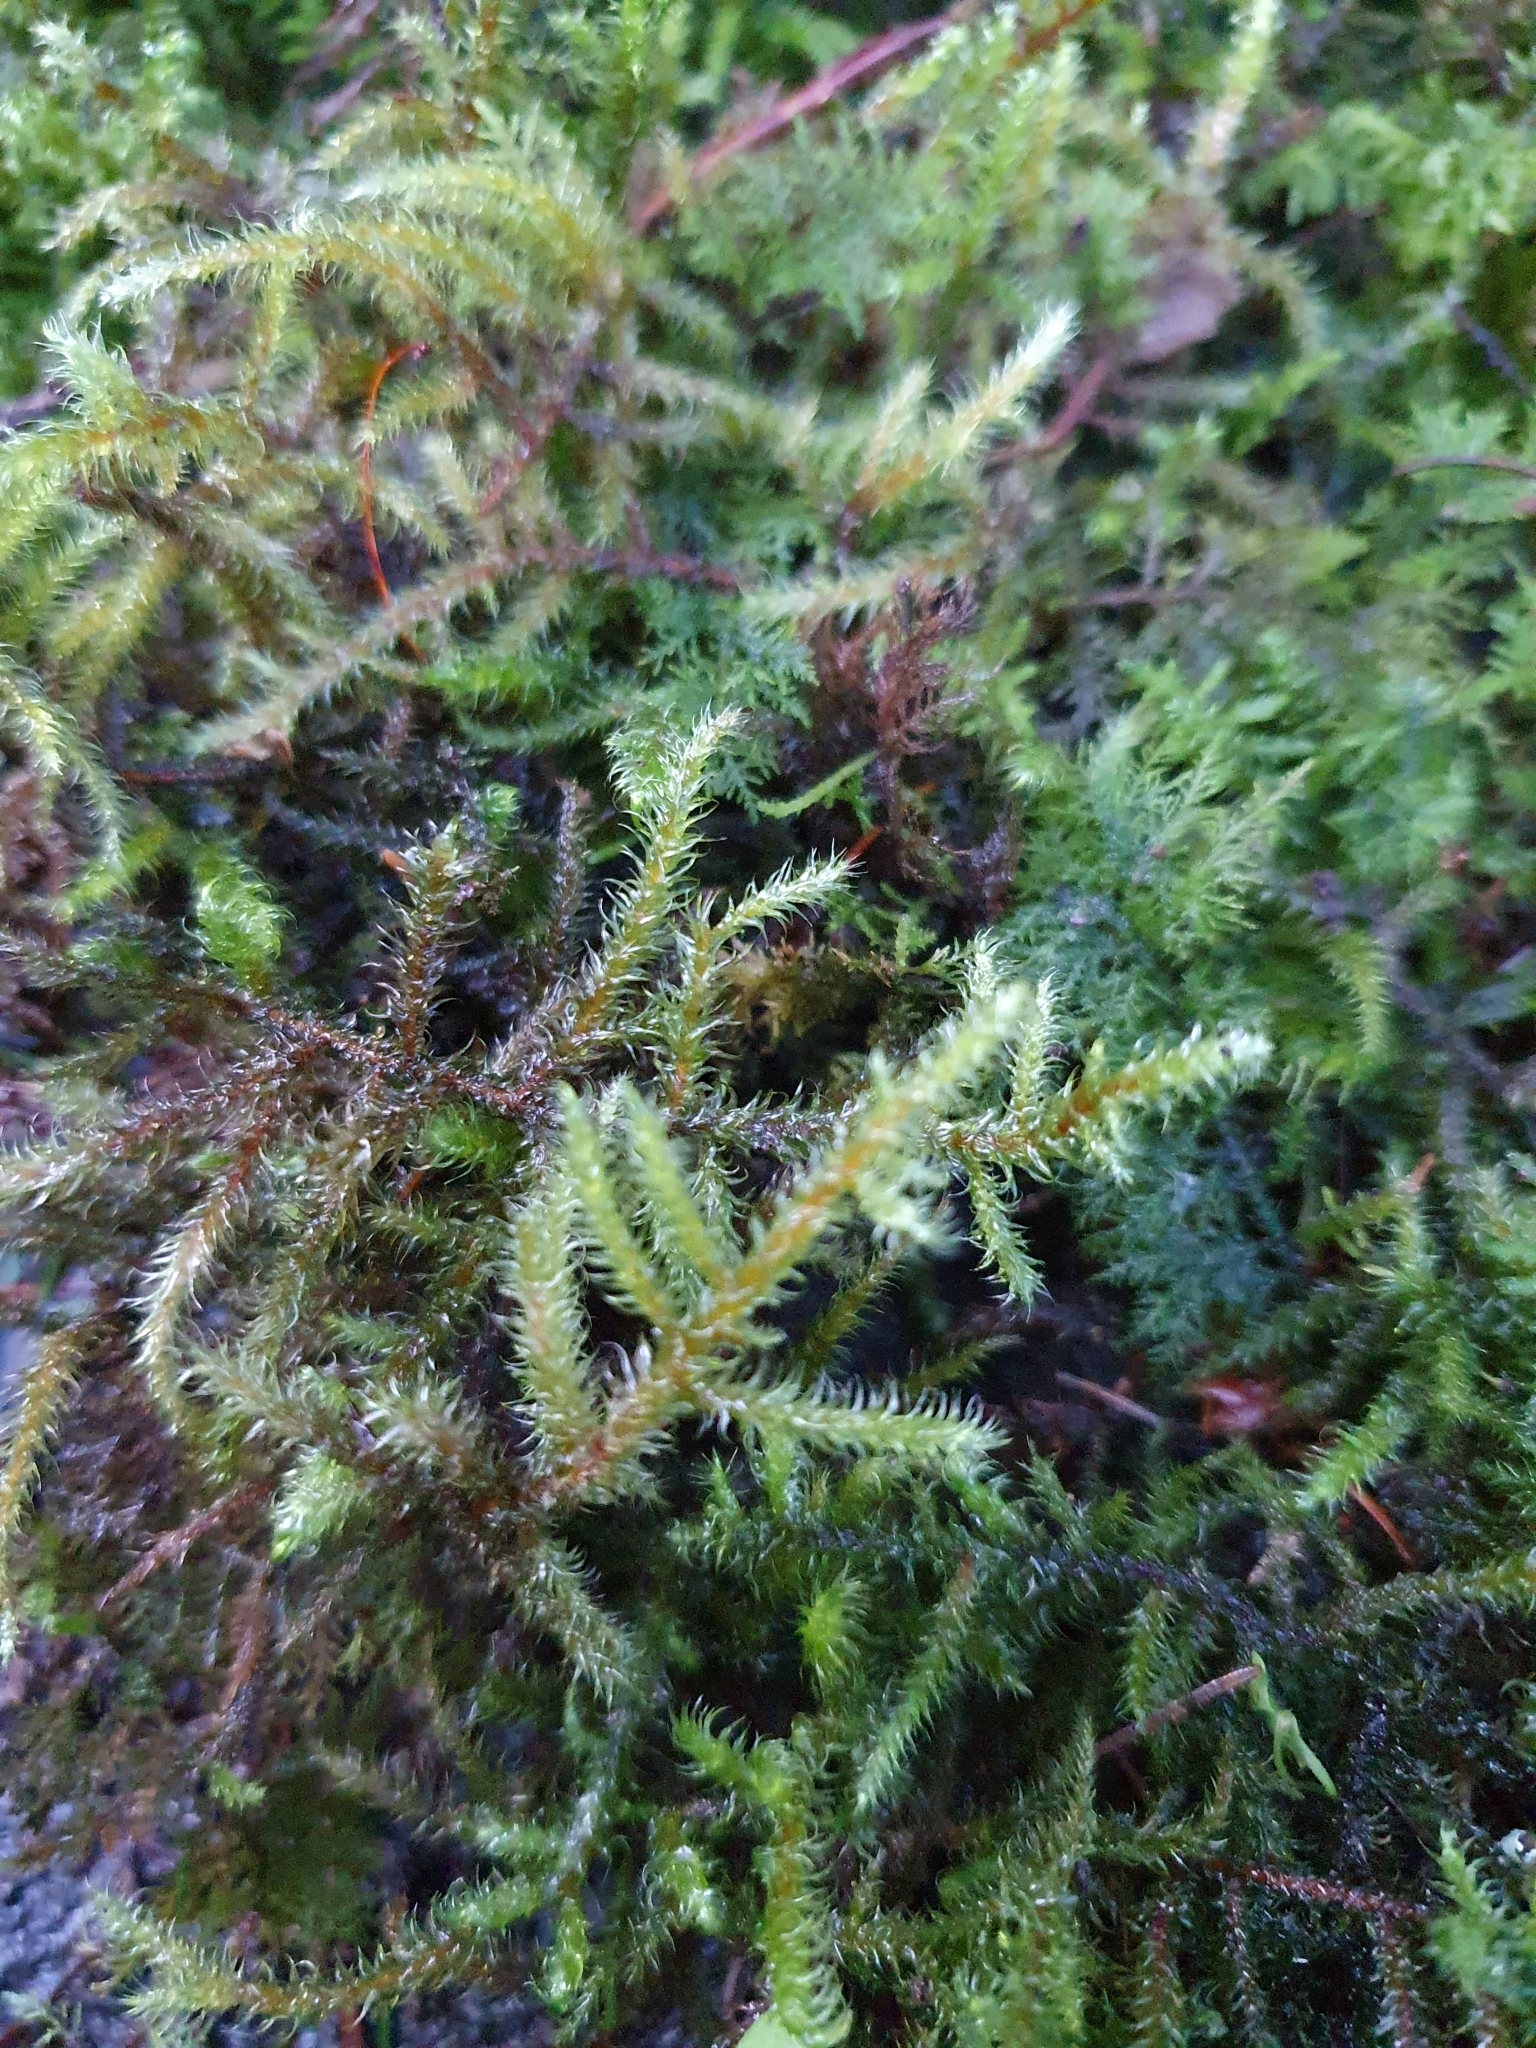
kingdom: Plantae
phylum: Bryophyta
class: Bryopsida
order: Hypnales
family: Hylocomiaceae
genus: Rhytidiadelphus
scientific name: Rhytidiadelphus loreus
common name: Lanky moss
